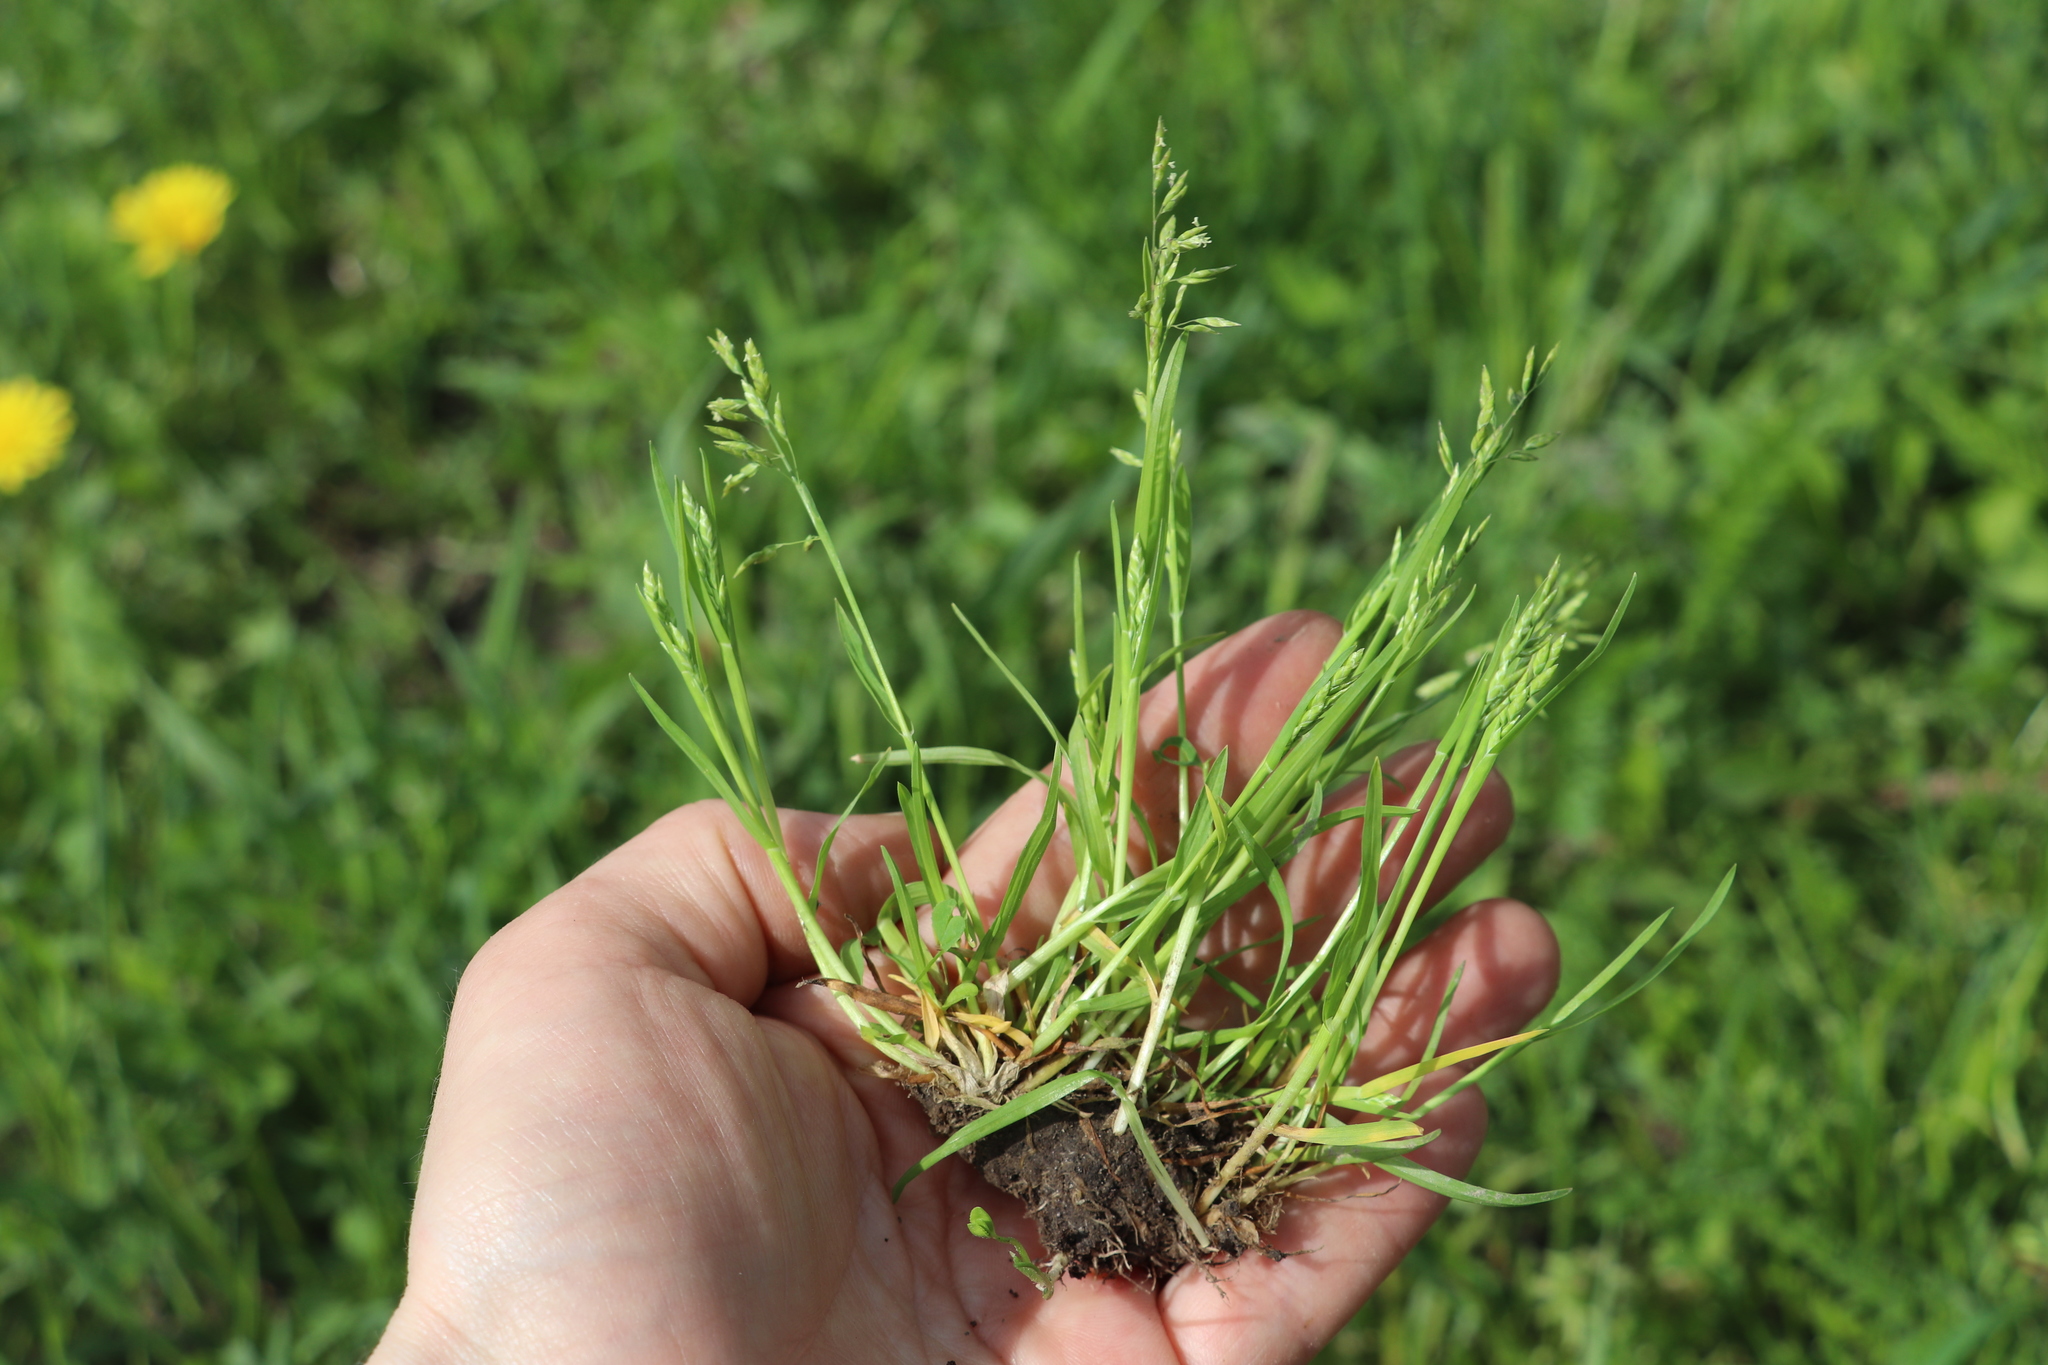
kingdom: Plantae
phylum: Tracheophyta
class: Liliopsida
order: Poales
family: Poaceae
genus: Poa
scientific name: Poa annua
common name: Annual bluegrass
